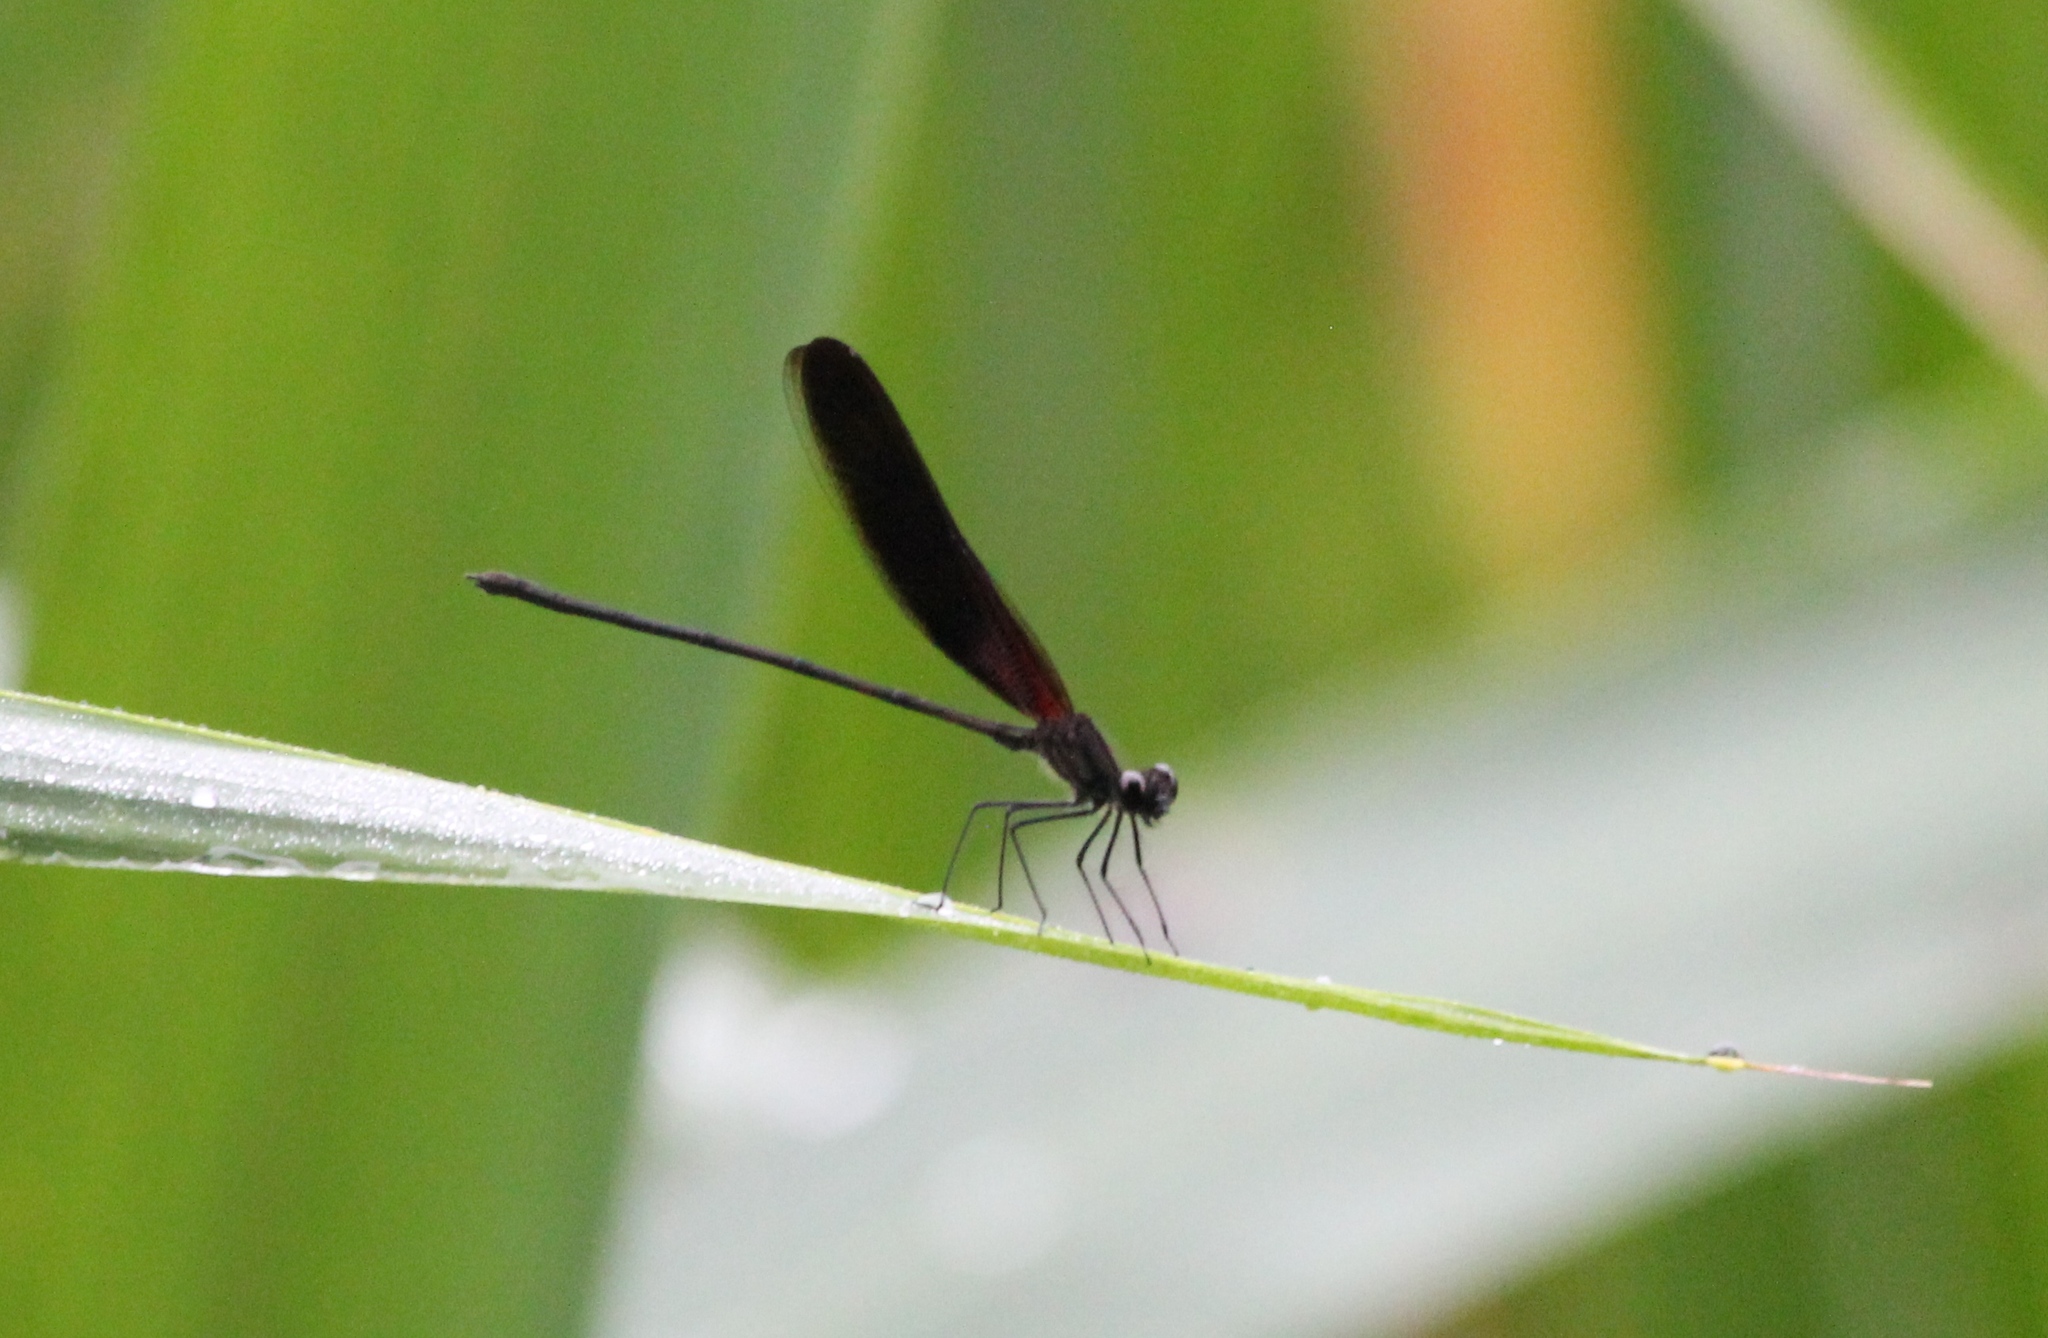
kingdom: Animalia
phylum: Arthropoda
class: Insecta
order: Odonata
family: Calopterygidae
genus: Hetaerina
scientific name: Hetaerina titia
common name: Smoky rubyspot
